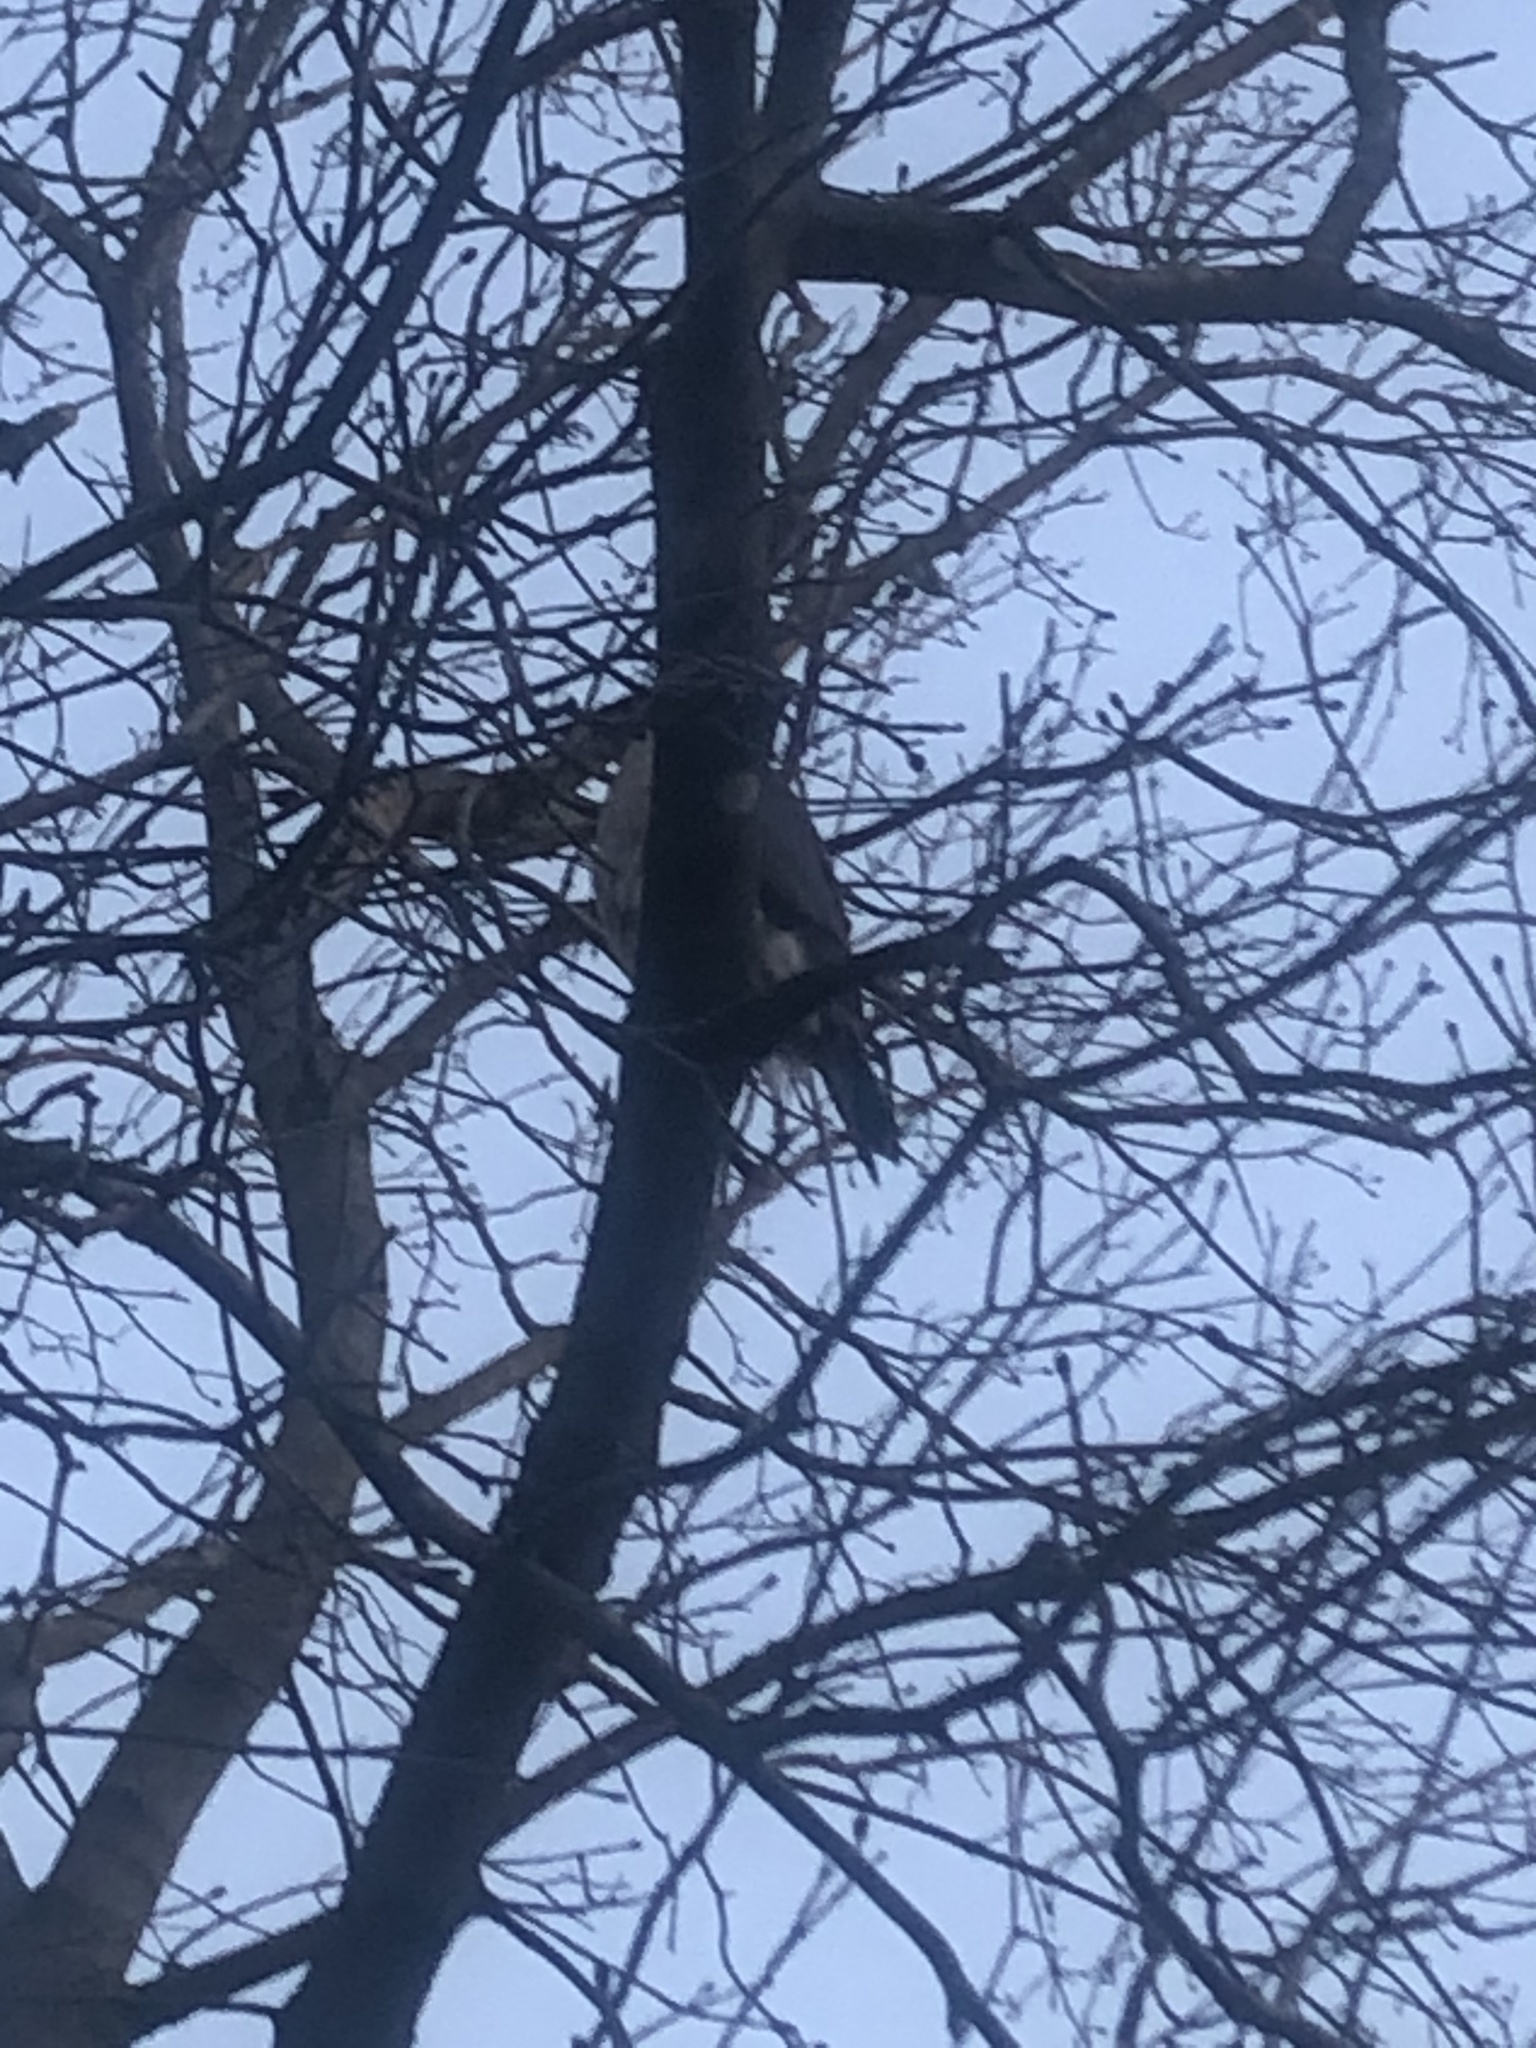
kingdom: Animalia
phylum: Chordata
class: Aves
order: Accipitriformes
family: Accipitridae
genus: Accipiter
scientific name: Accipiter cooperii
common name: Cooper's hawk
